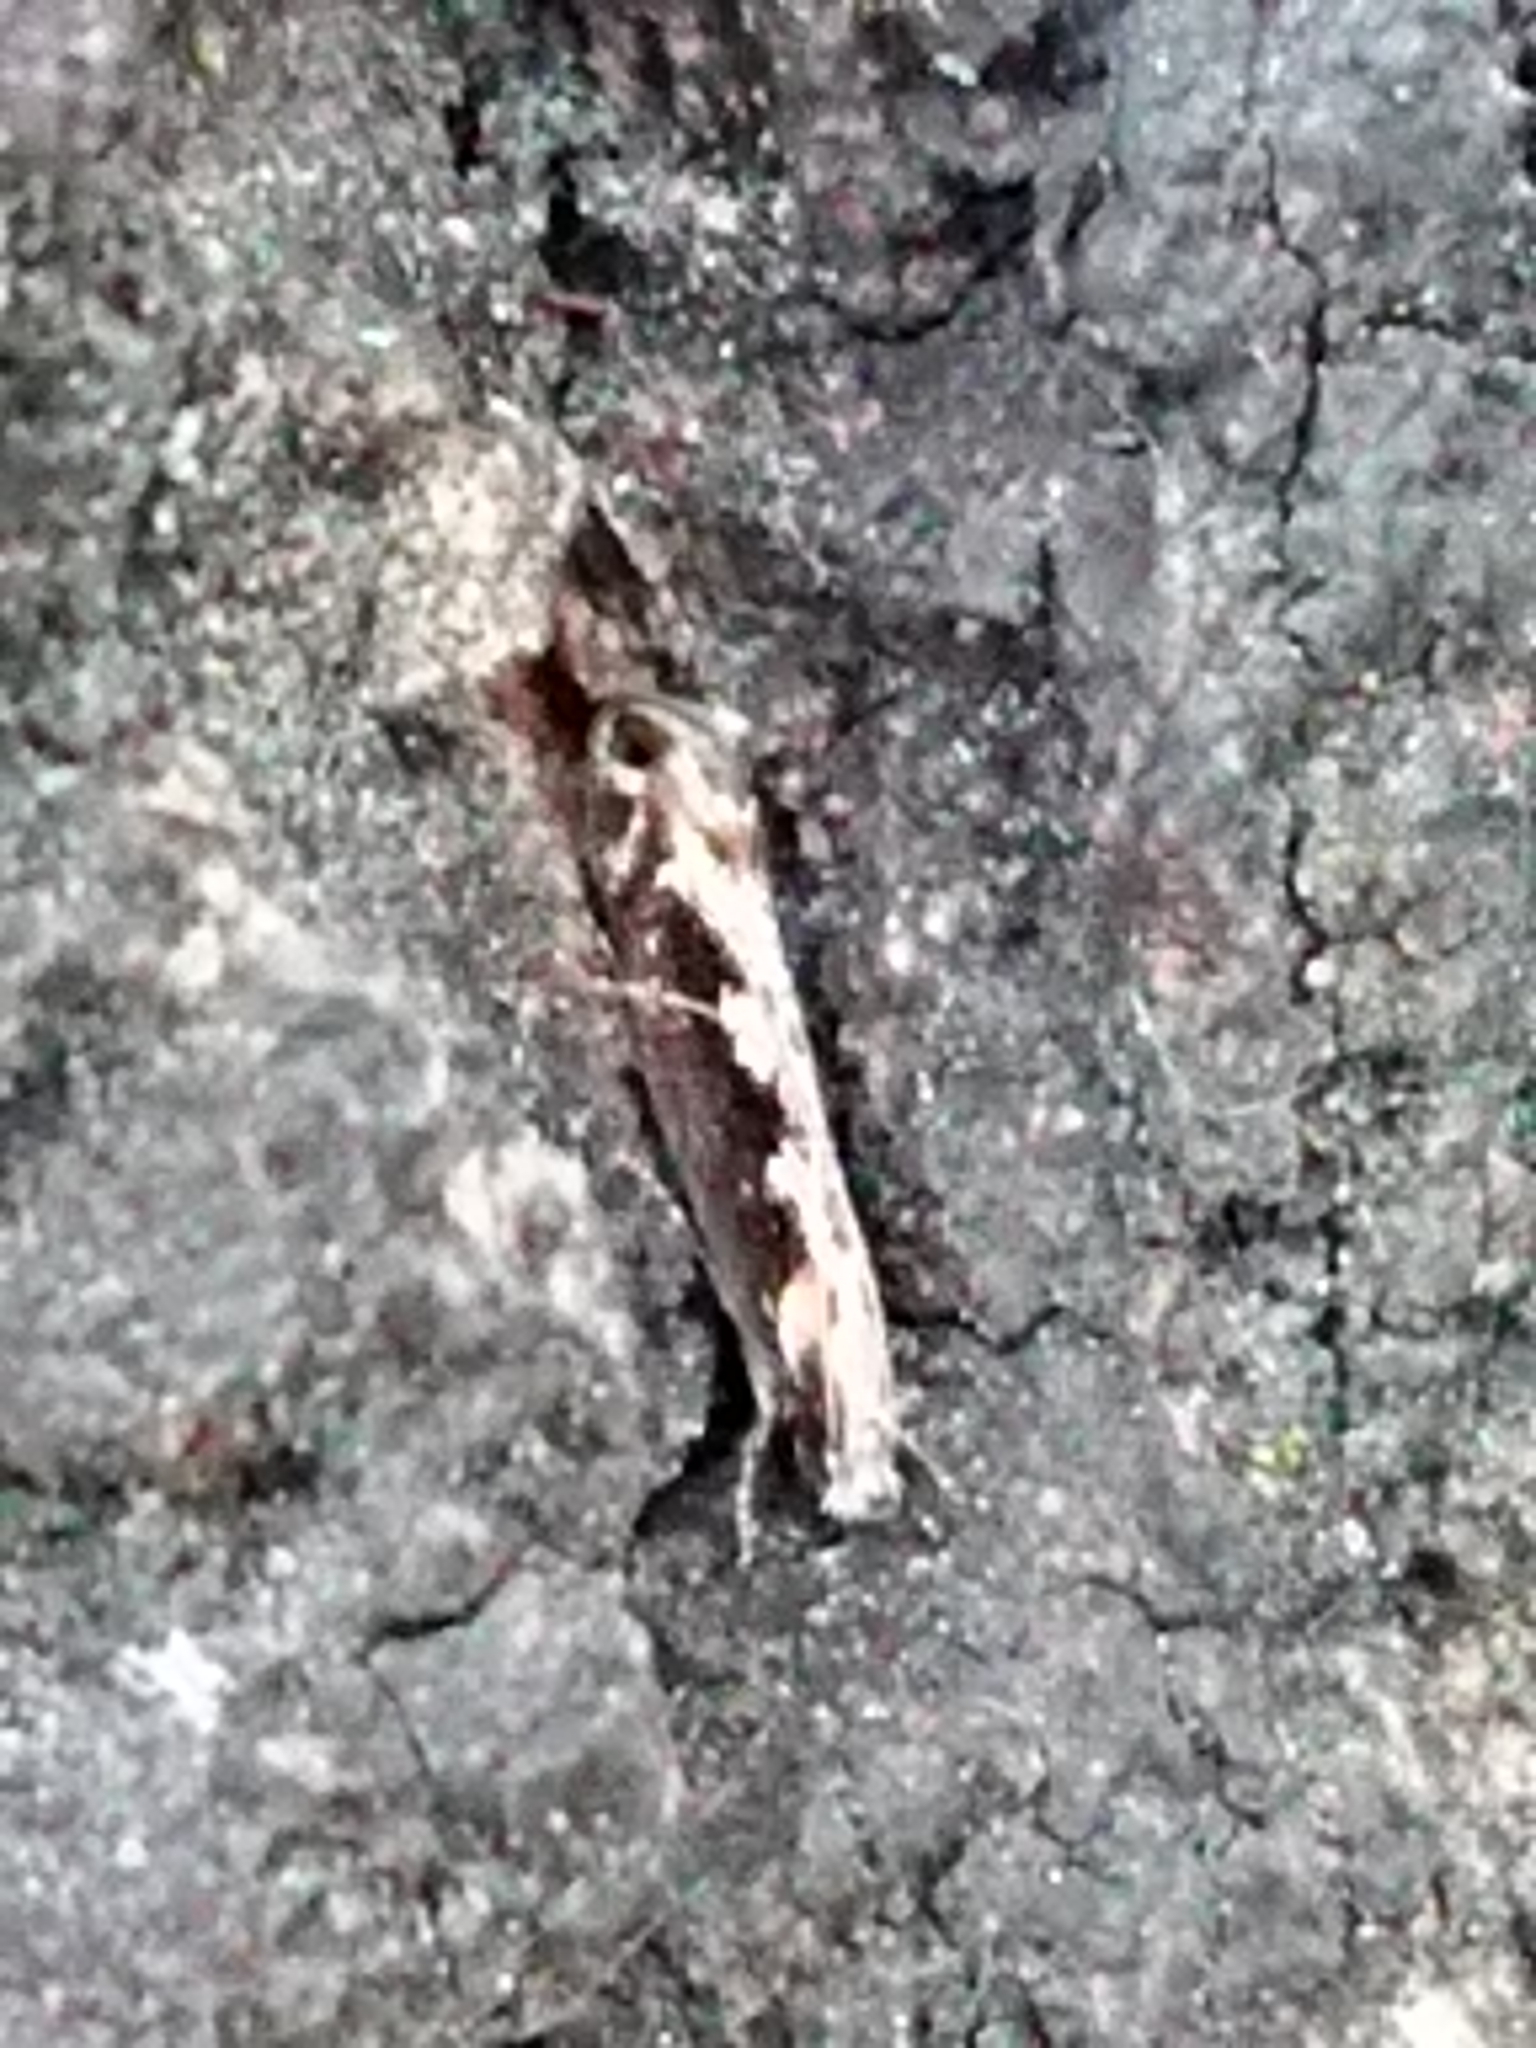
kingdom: Animalia
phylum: Arthropoda
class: Insecta
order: Lepidoptera
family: Tineidae
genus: Erechthias
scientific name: Erechthias fulguritella
